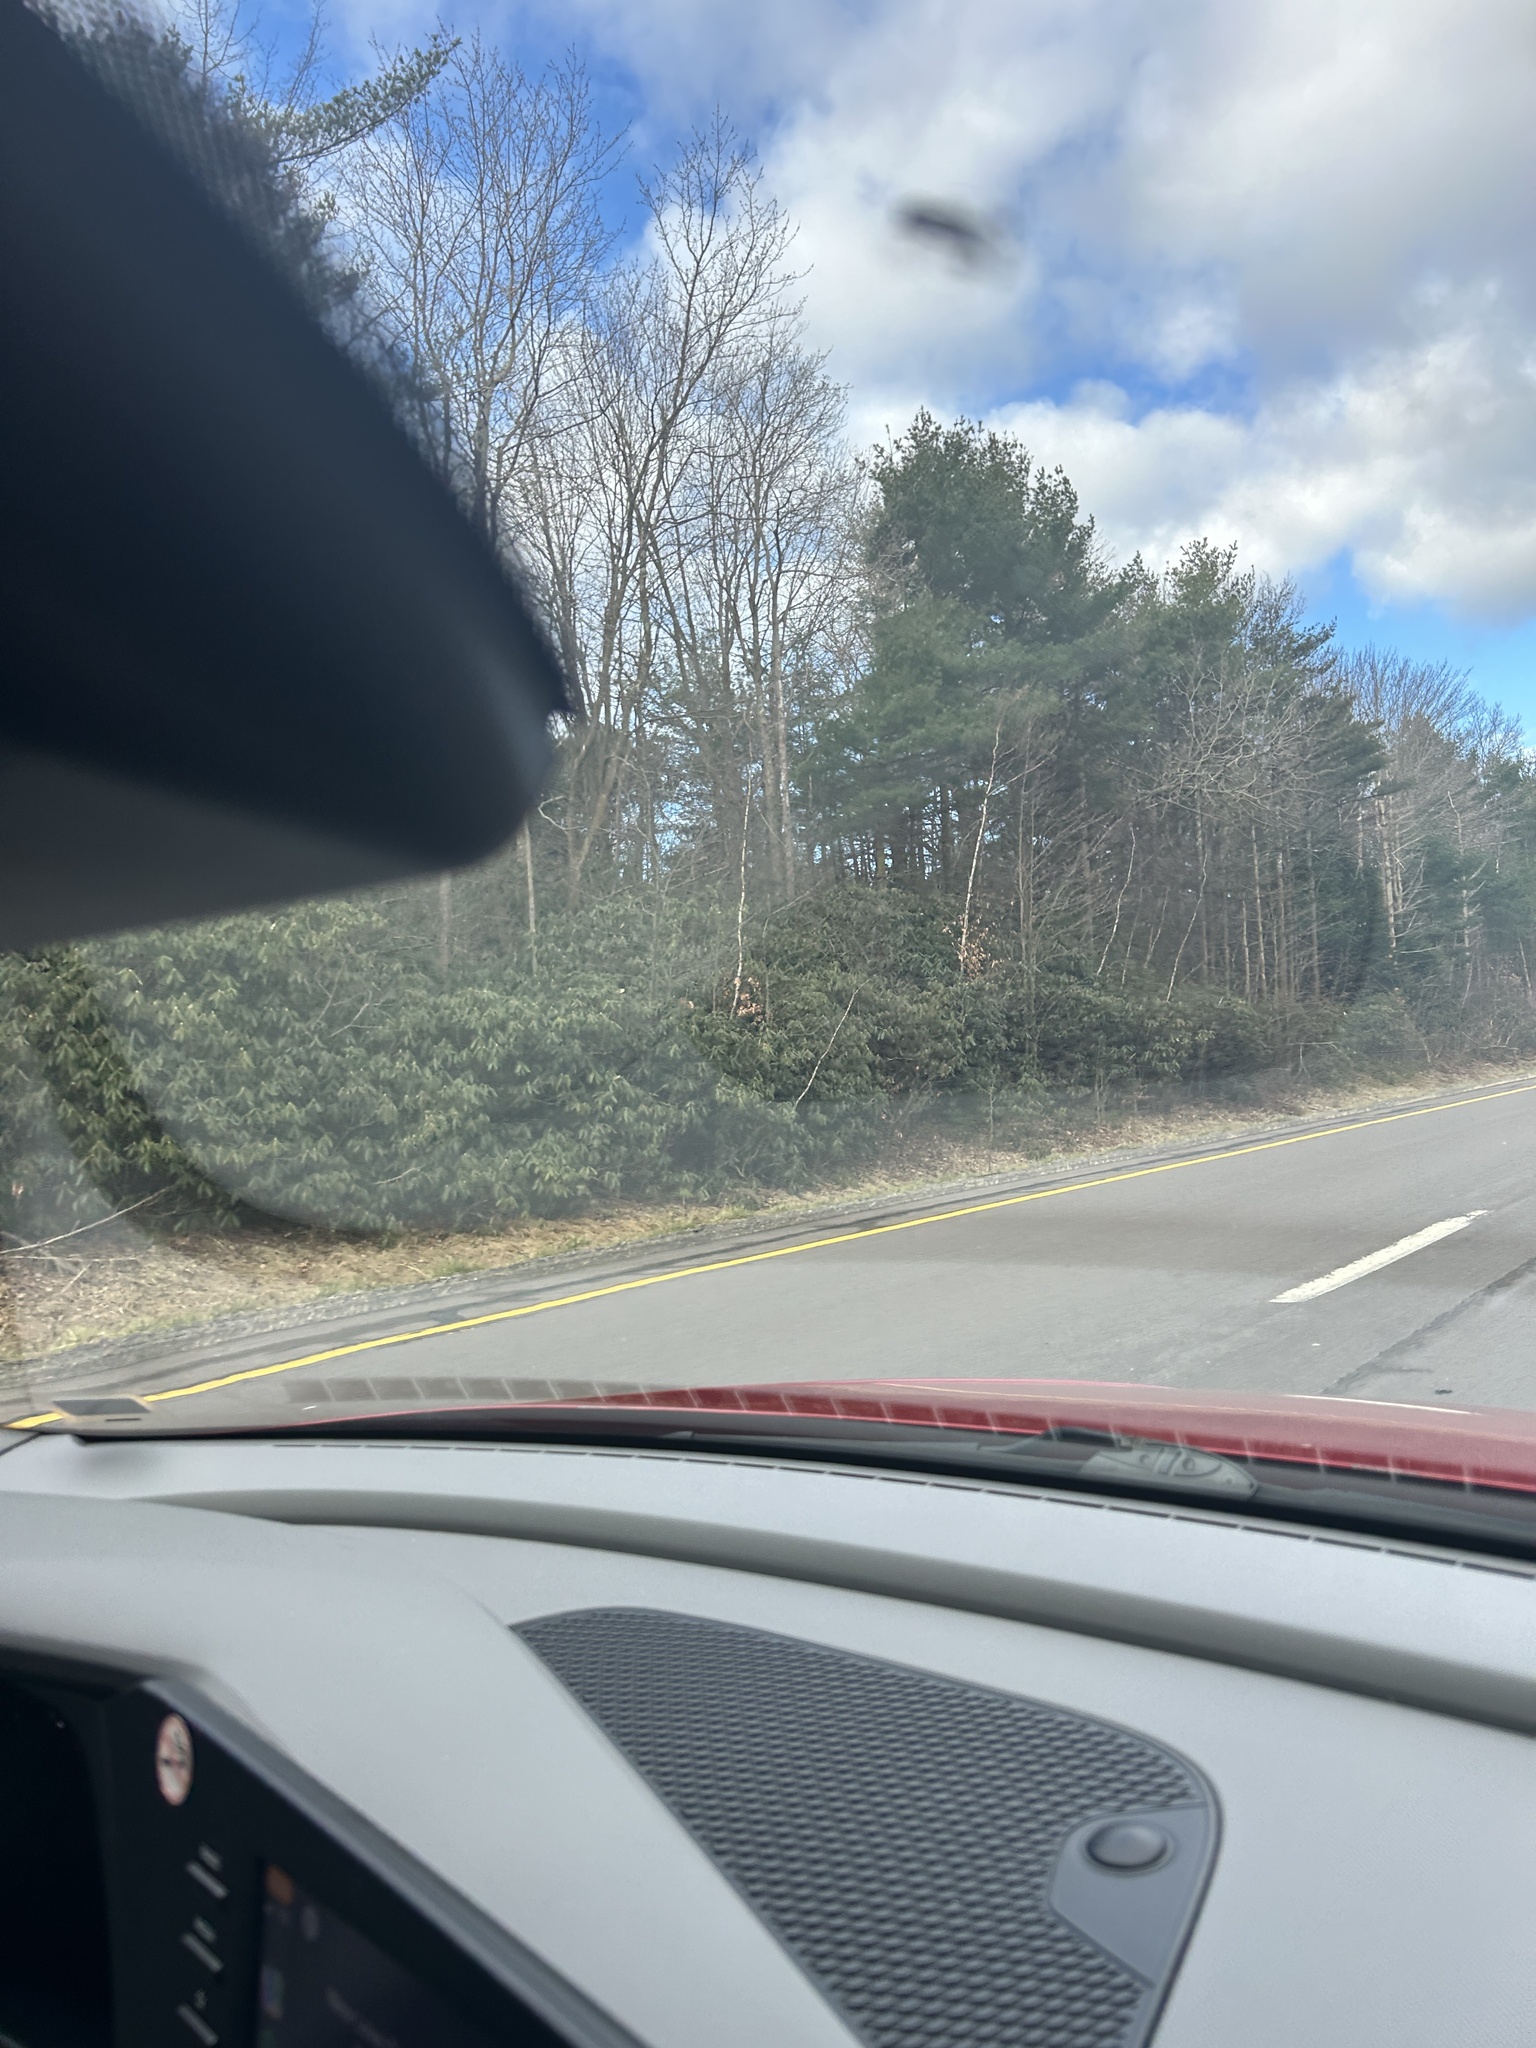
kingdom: Plantae
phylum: Tracheophyta
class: Magnoliopsida
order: Ericales
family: Ericaceae
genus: Rhododendron
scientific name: Rhododendron maximum
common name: Great rhododendron
